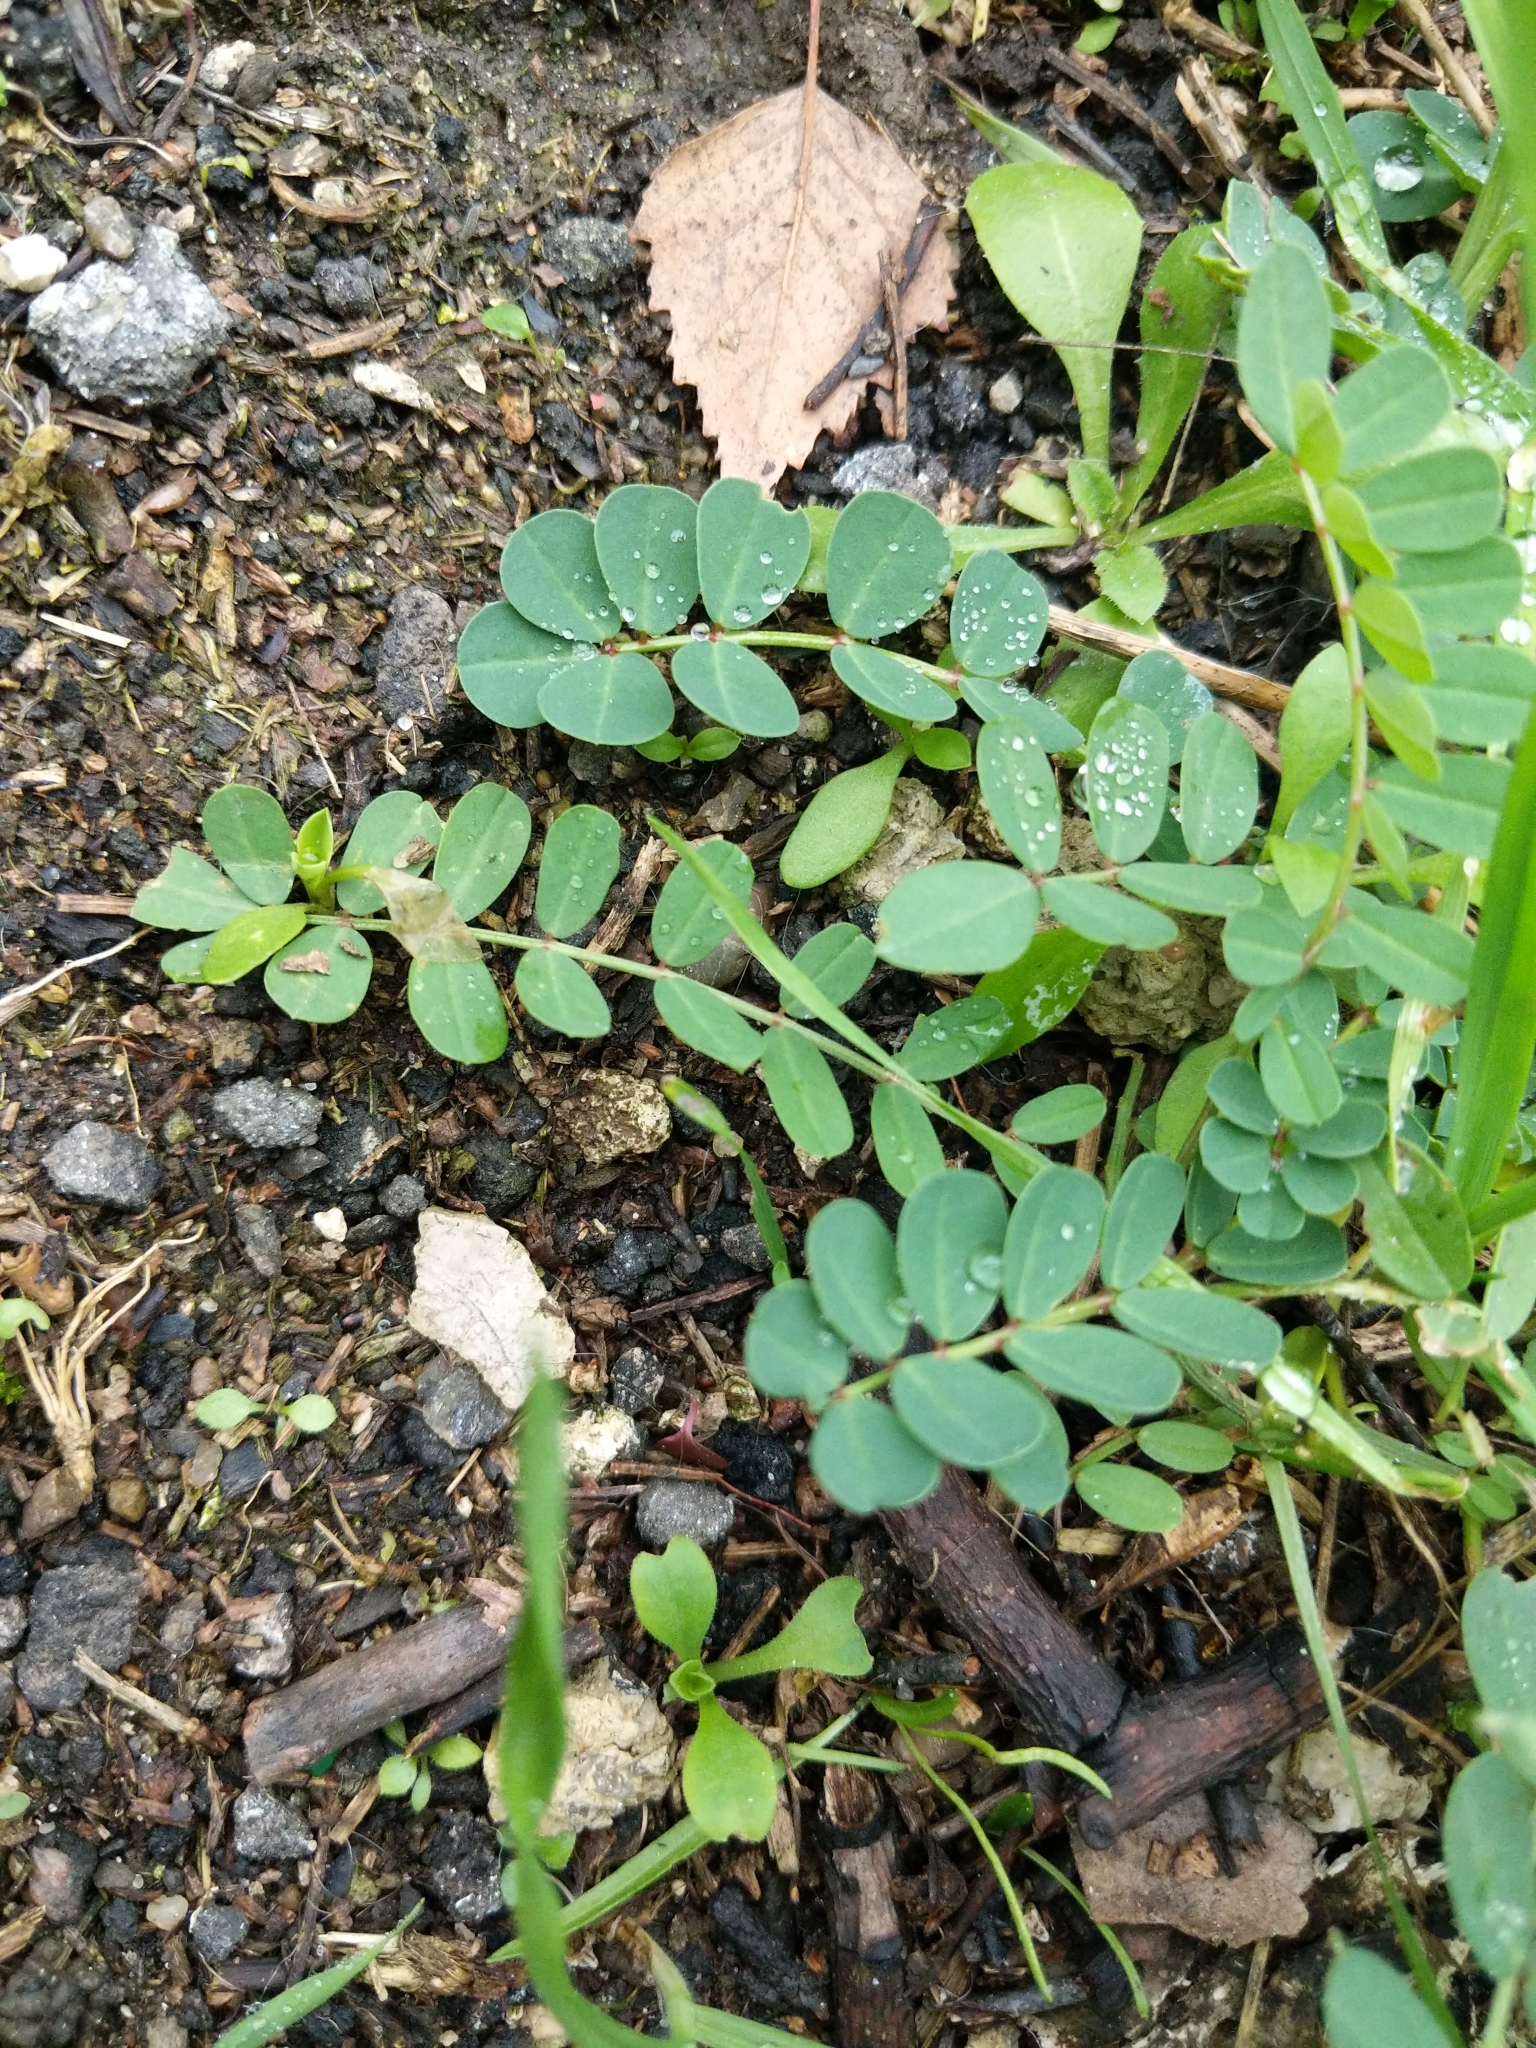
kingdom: Plantae
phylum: Tracheophyta
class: Magnoliopsida
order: Fabales
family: Fabaceae
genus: Coronilla
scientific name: Coronilla varia
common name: Crownvetch
